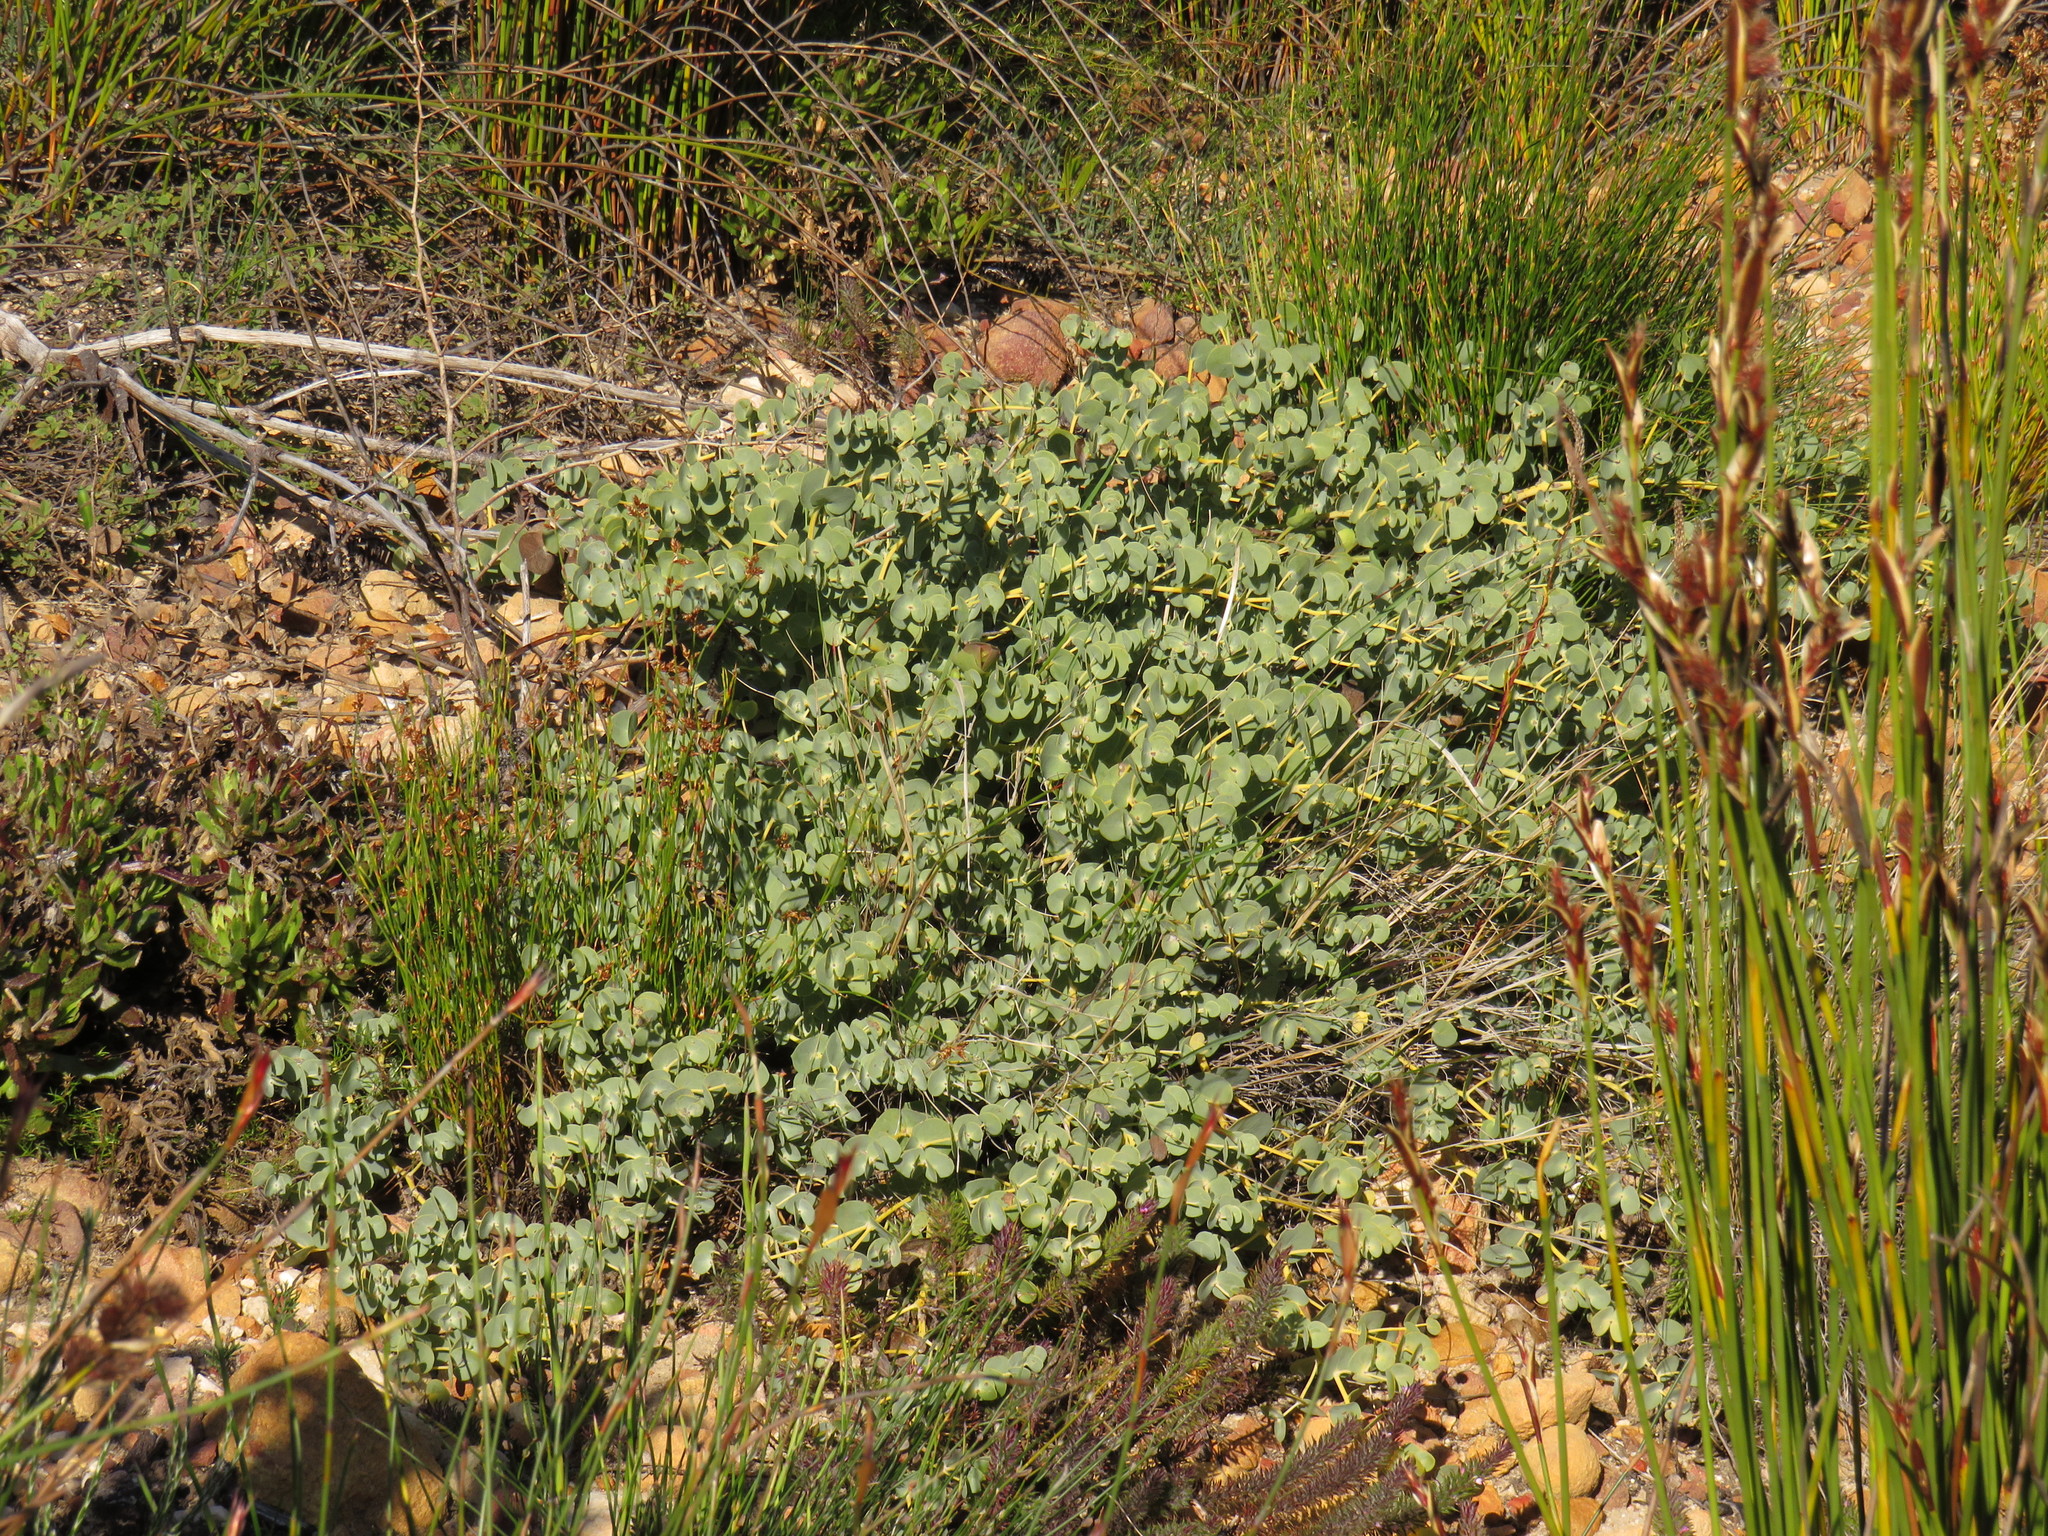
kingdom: Plantae
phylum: Tracheophyta
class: Magnoliopsida
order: Fabales
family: Fabaceae
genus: Rafnia
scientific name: Rafnia acuminata
